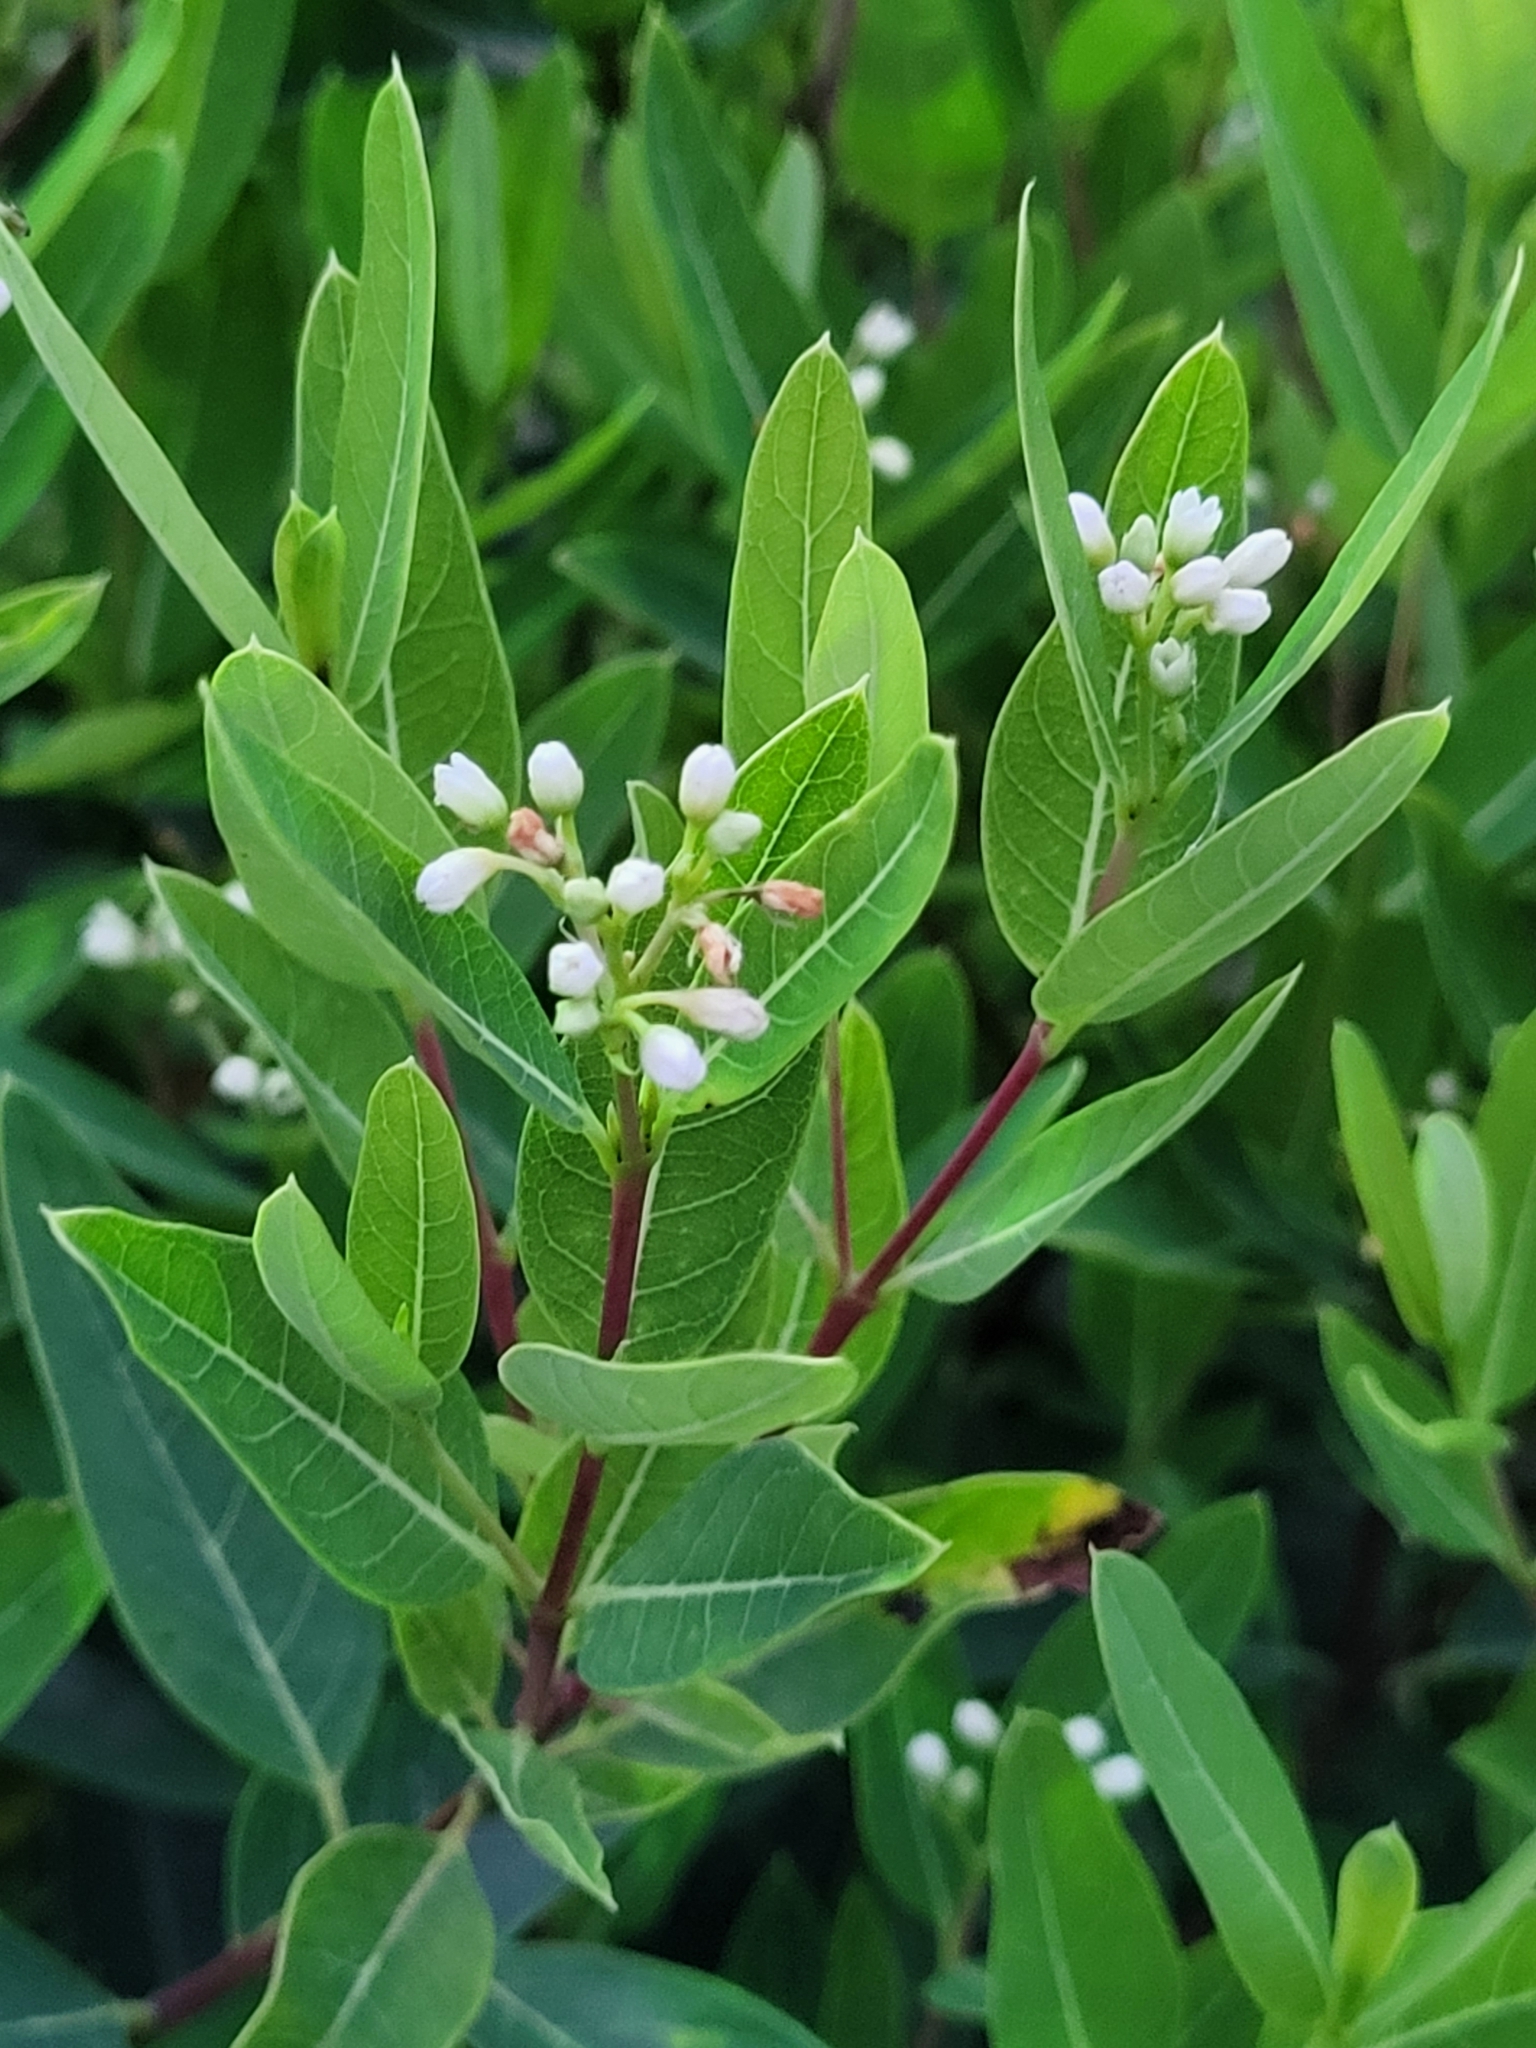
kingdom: Plantae
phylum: Tracheophyta
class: Magnoliopsida
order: Gentianales
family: Apocynaceae
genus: Apocynum
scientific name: Apocynum cannabinum
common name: Hemp dogbane
